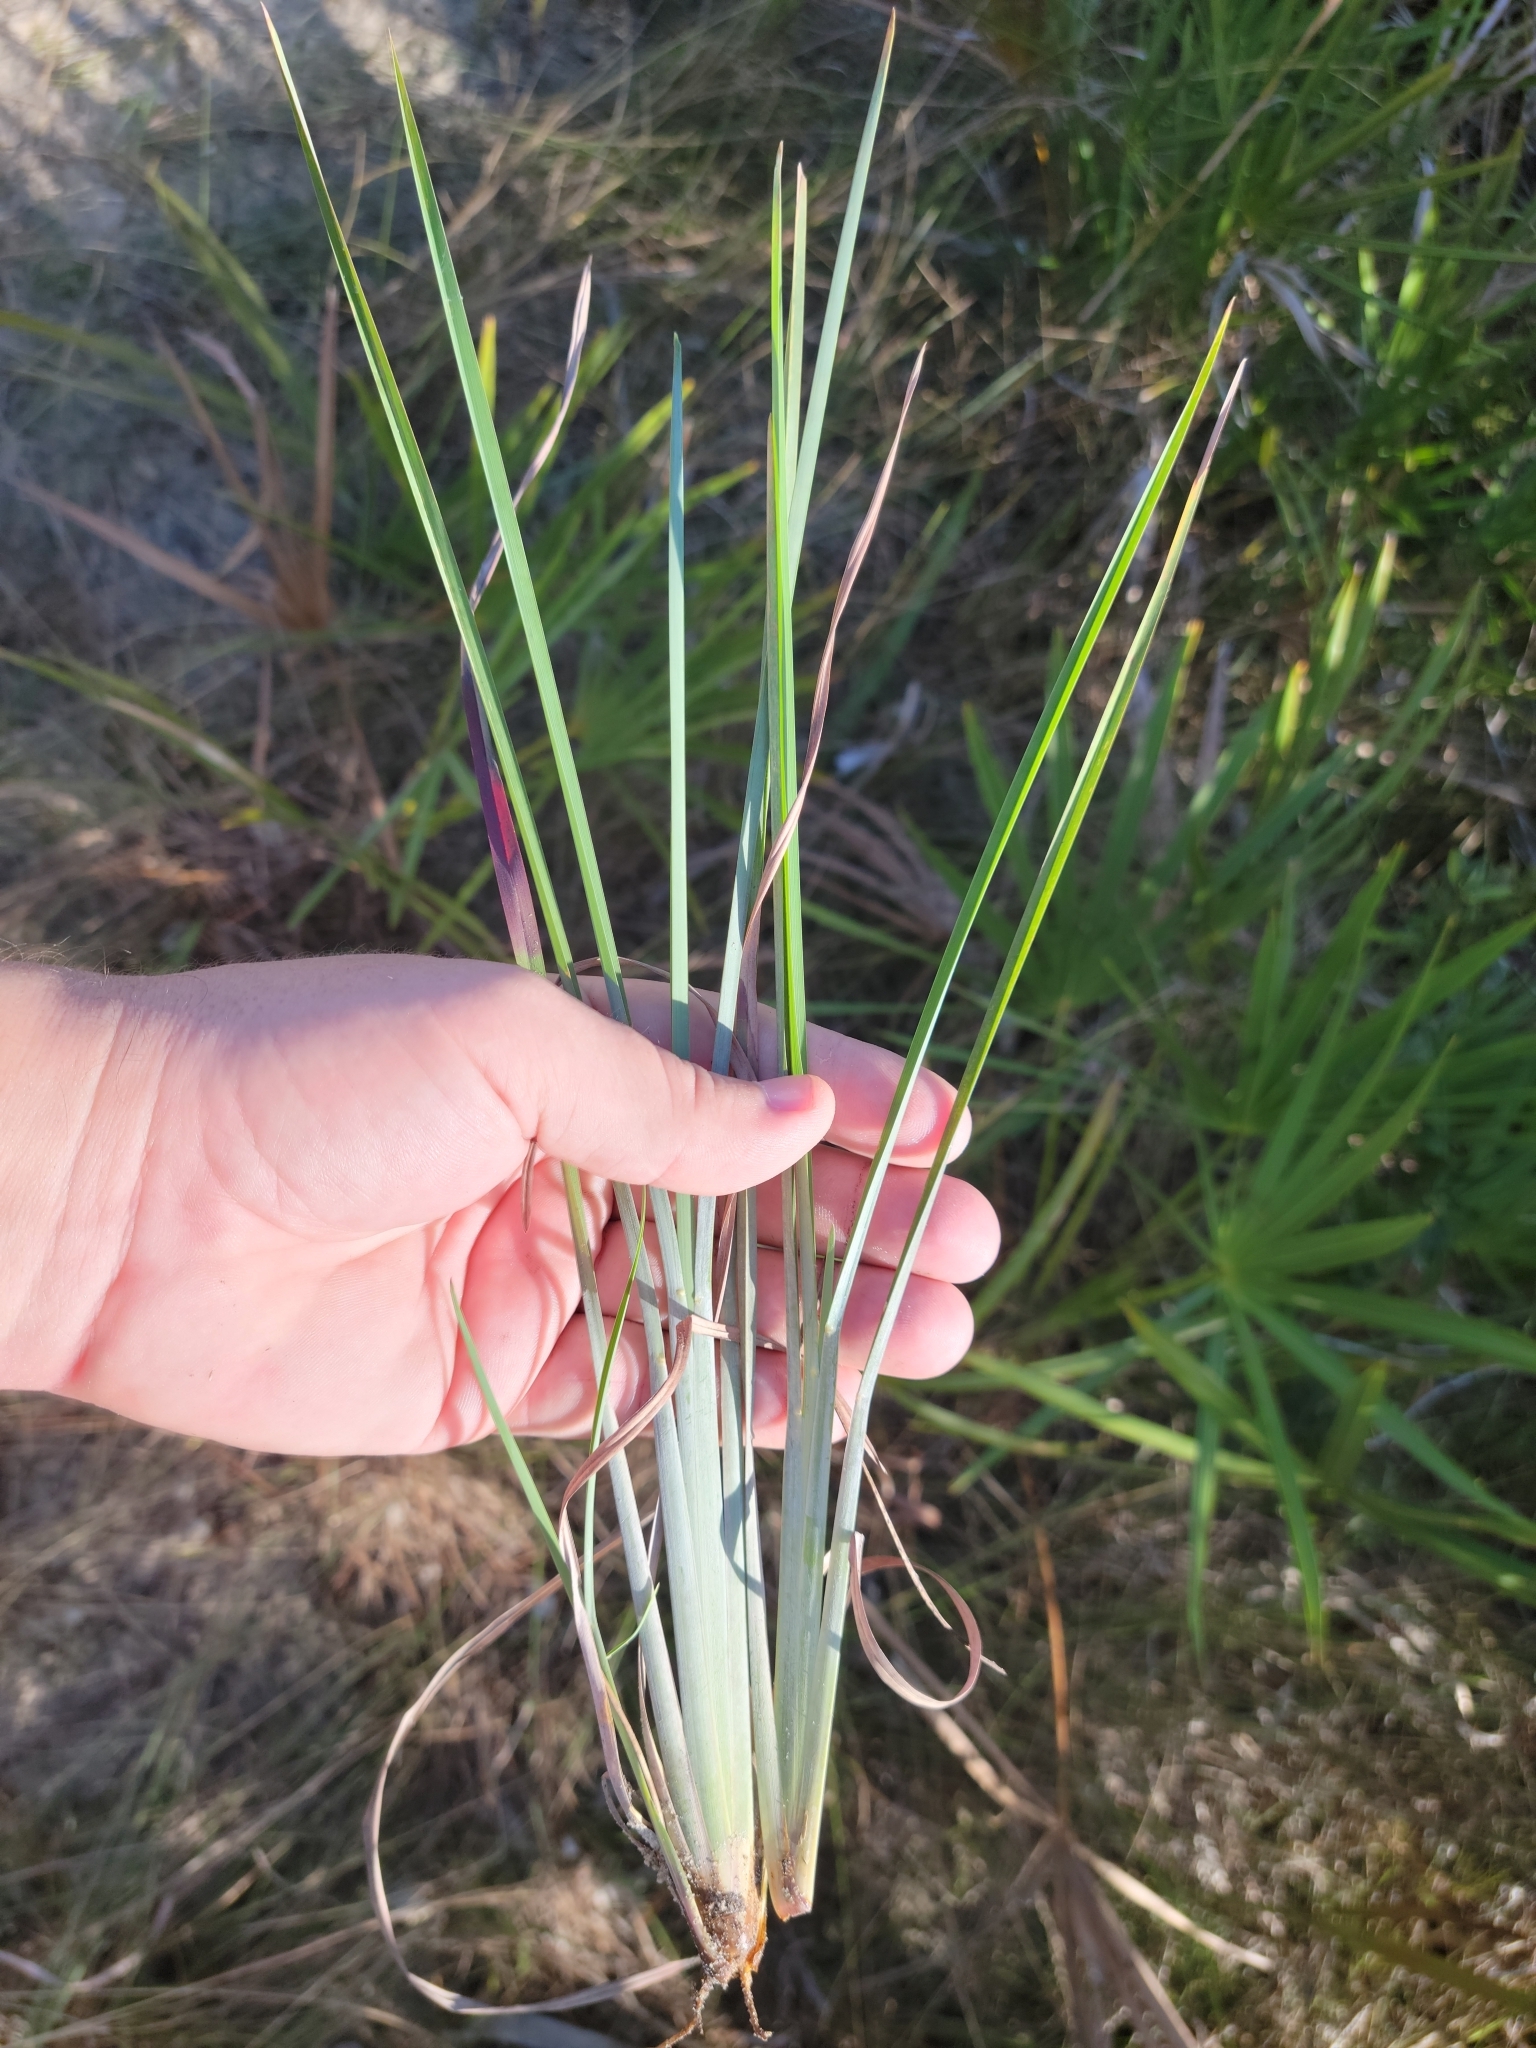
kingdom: Plantae
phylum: Tracheophyta
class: Liliopsida
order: Poales
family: Poaceae
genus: Andropogon
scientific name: Andropogon dealbatus
